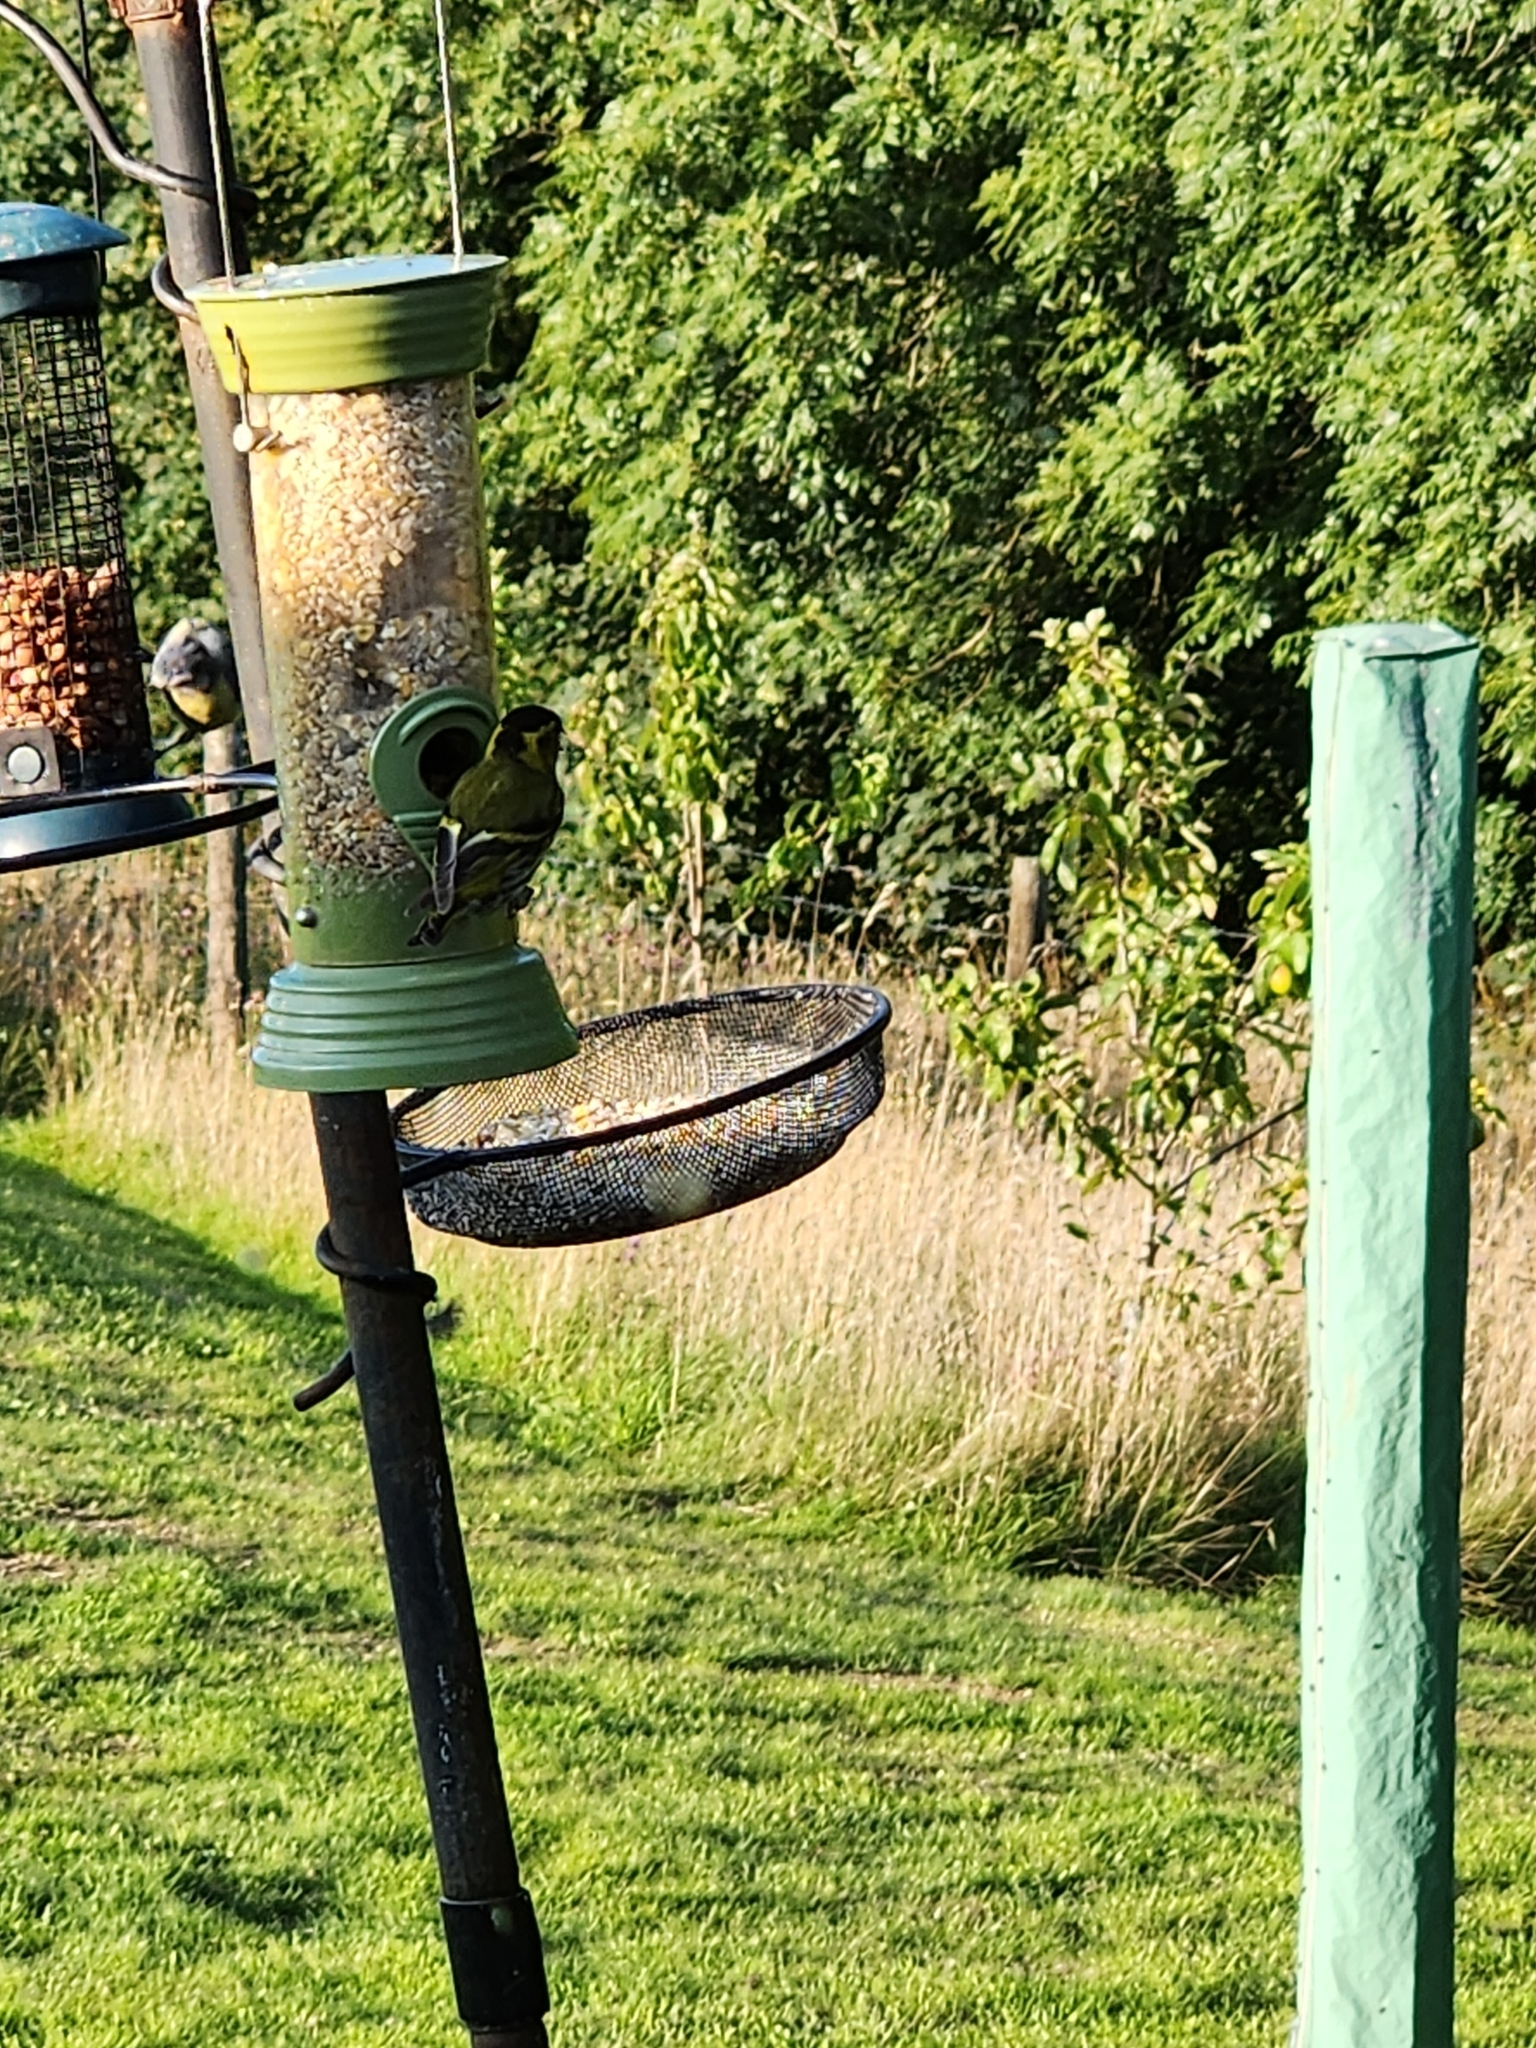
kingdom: Animalia
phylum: Chordata
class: Aves
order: Passeriformes
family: Fringillidae
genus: Spinus
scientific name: Spinus spinus
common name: Eurasian siskin
